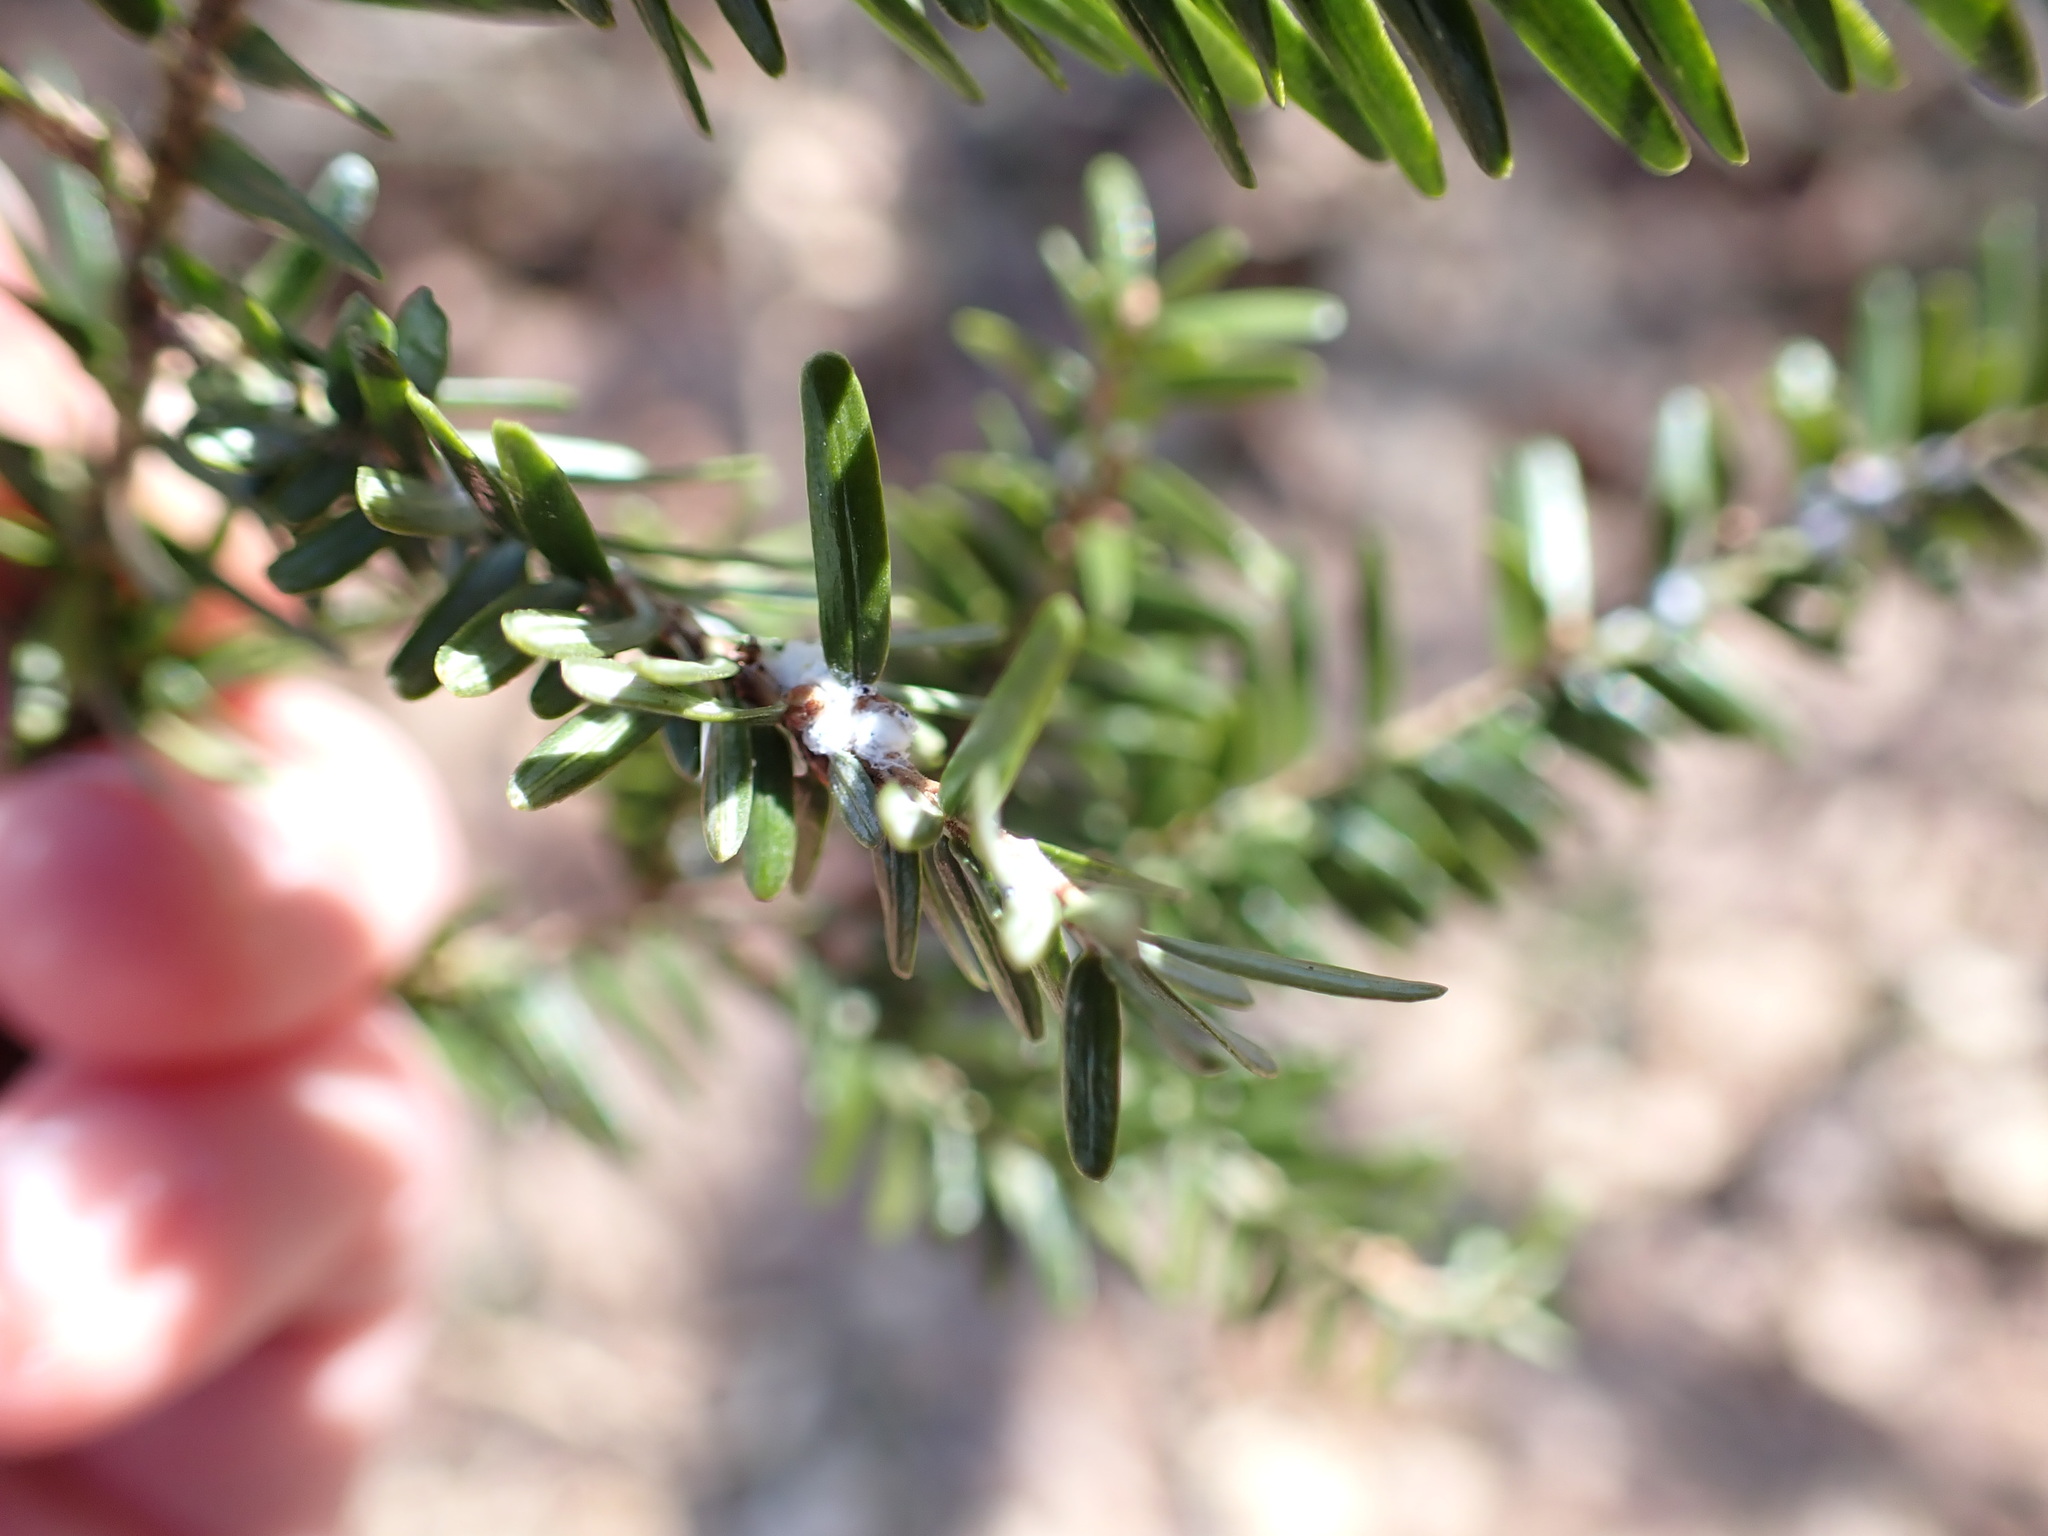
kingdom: Animalia
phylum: Arthropoda
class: Insecta
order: Hemiptera
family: Adelgidae
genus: Adelges
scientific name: Adelges tsugae
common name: Hemlock woolly adelgid
